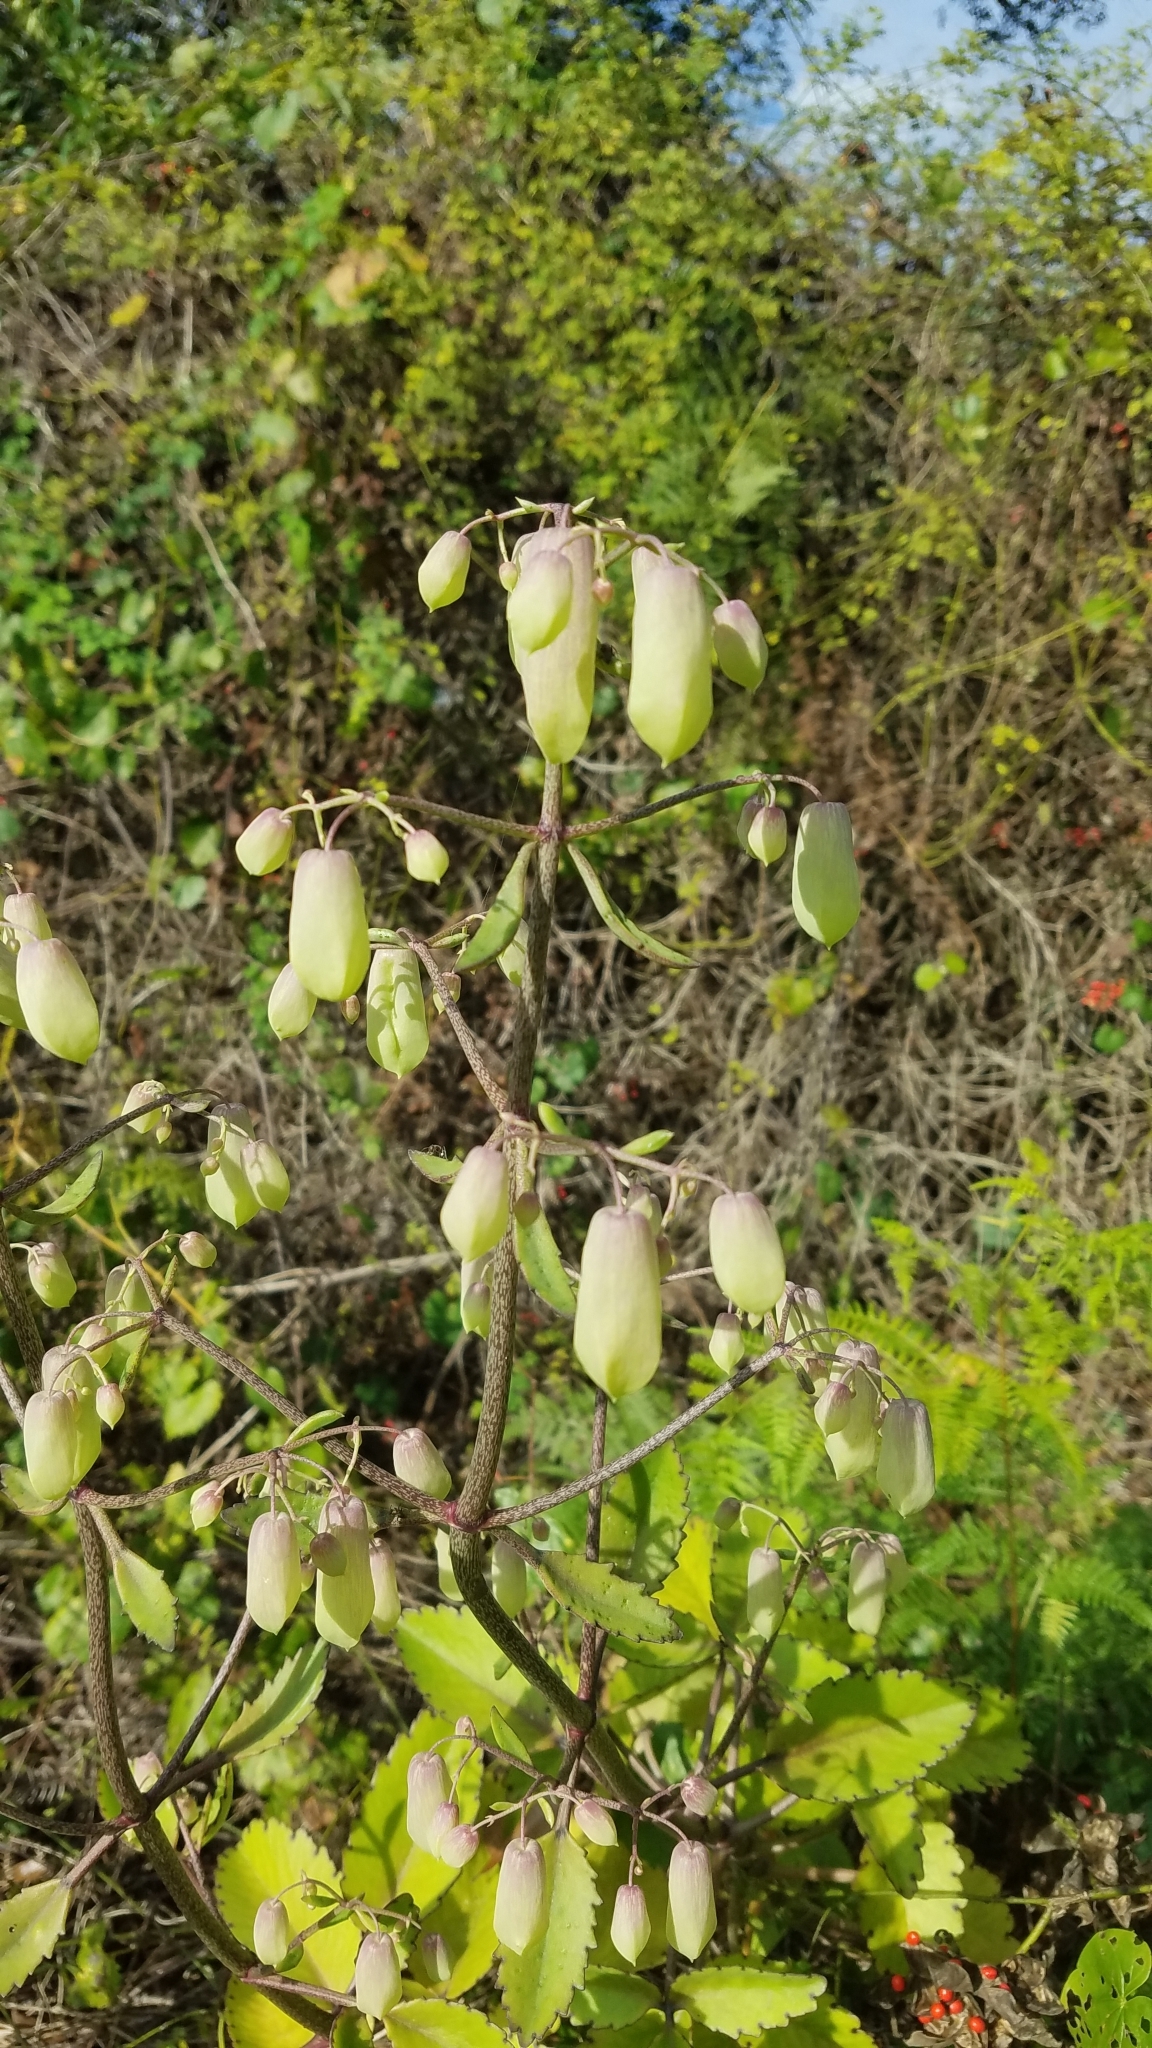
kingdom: Plantae
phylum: Tracheophyta
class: Magnoliopsida
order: Saxifragales
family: Crassulaceae
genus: Kalanchoe
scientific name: Kalanchoe pinnata
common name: Cathedral bells
